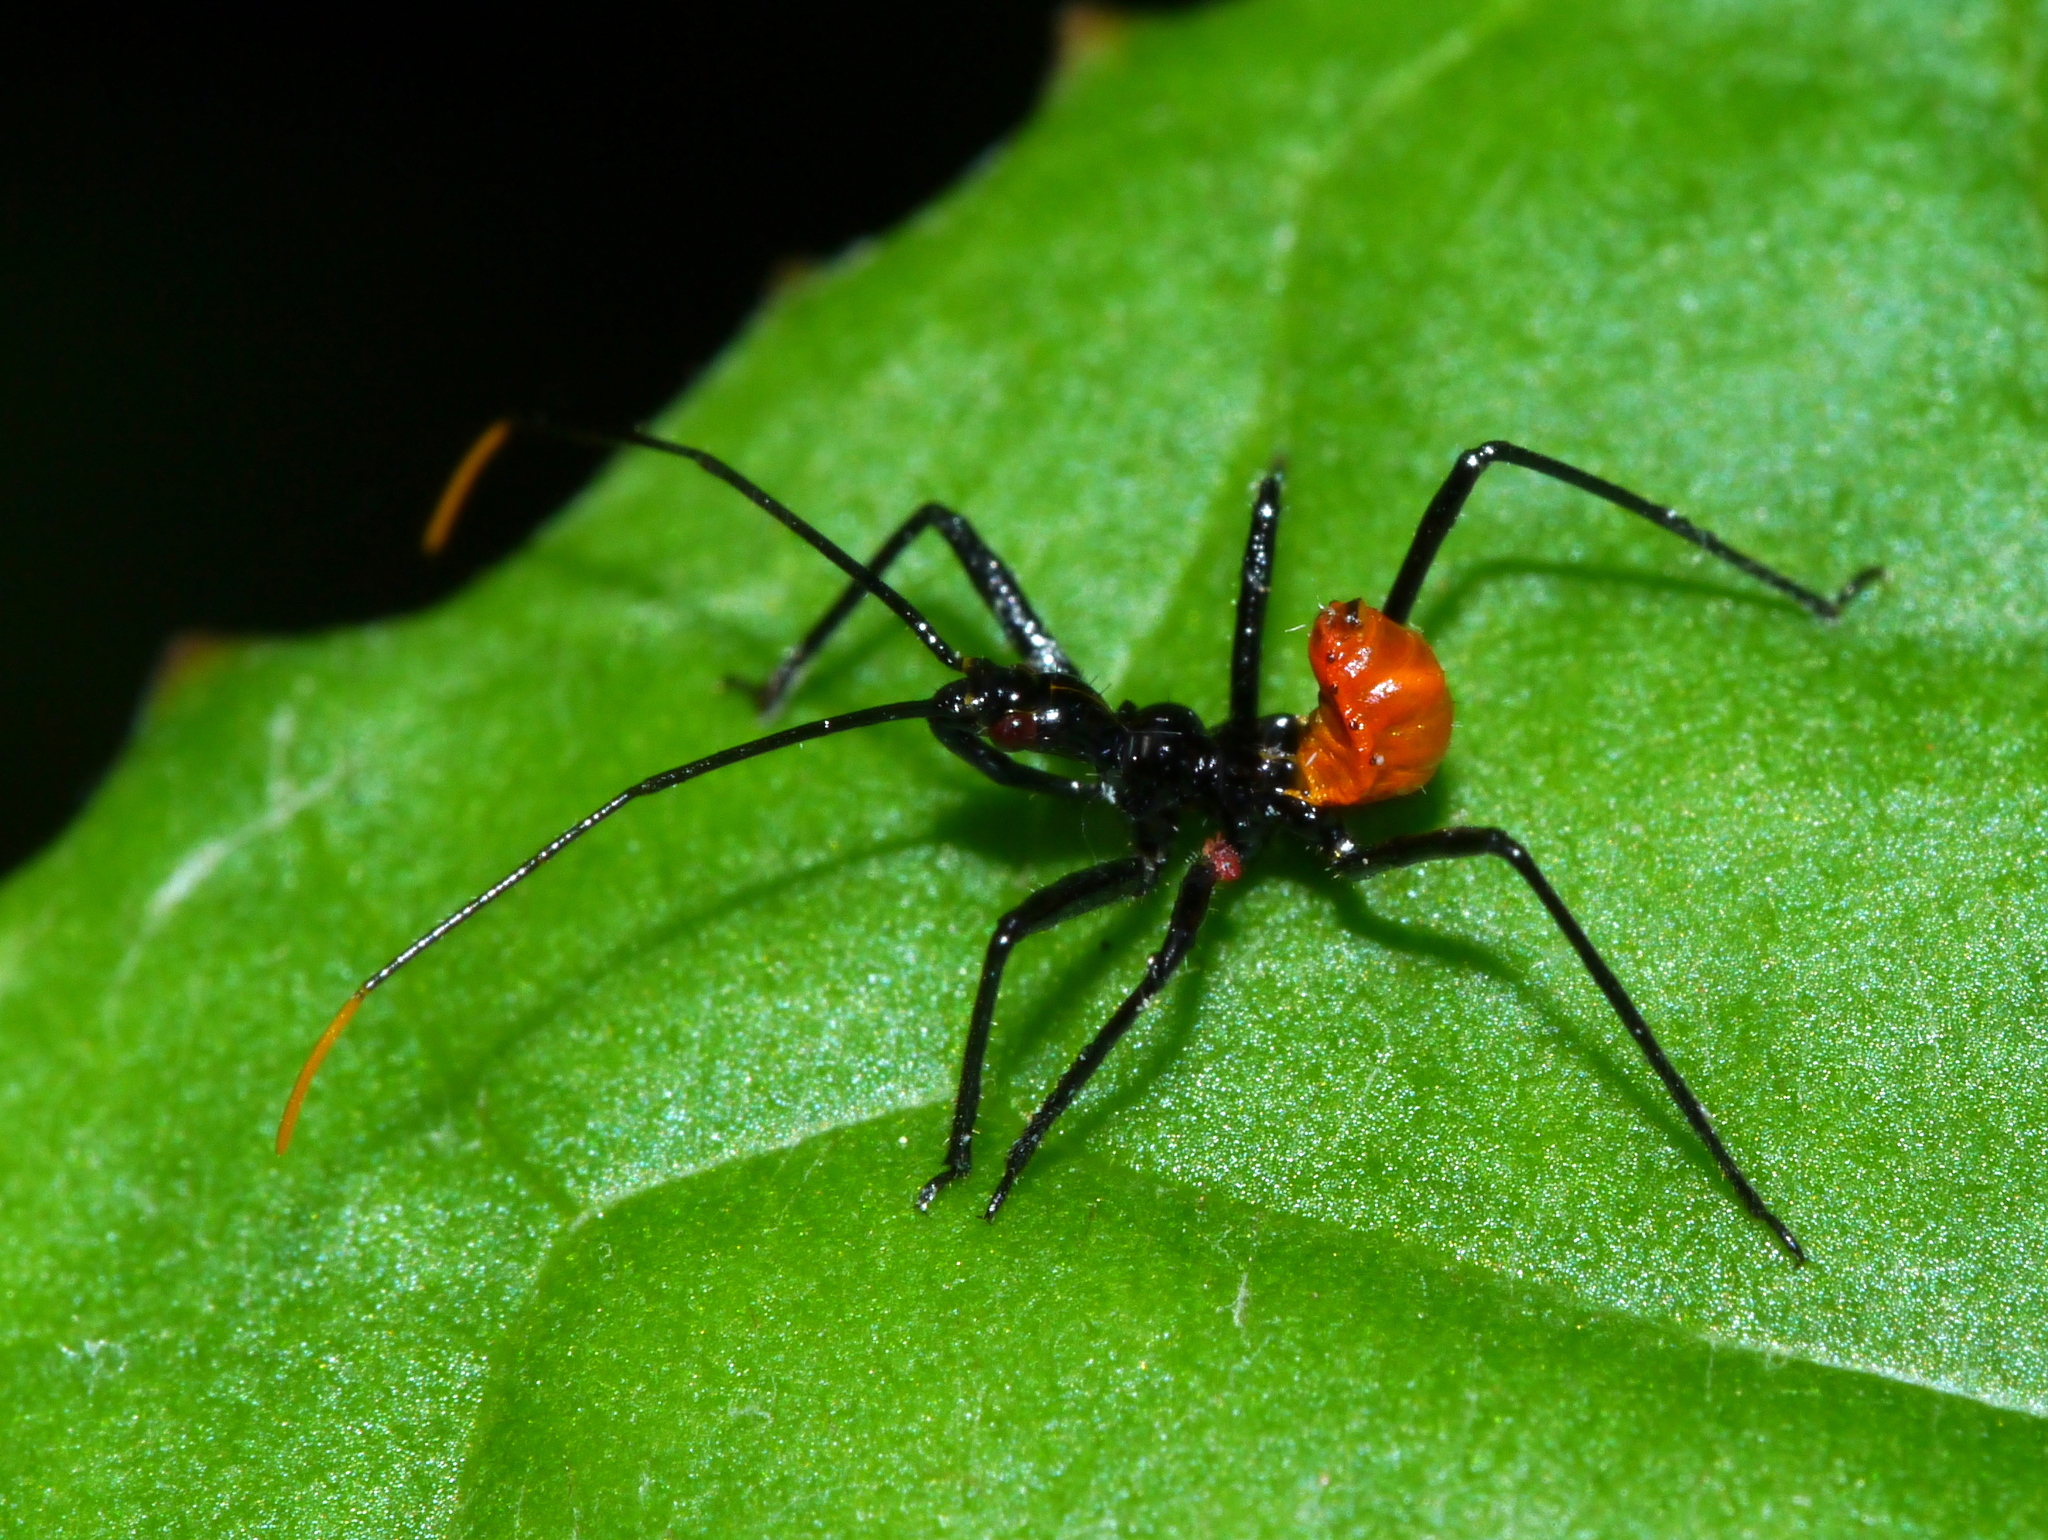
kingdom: Animalia
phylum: Arthropoda
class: Insecta
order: Hemiptera
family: Reduviidae
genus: Arilus
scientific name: Arilus cristatus
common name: North american wheel bug
